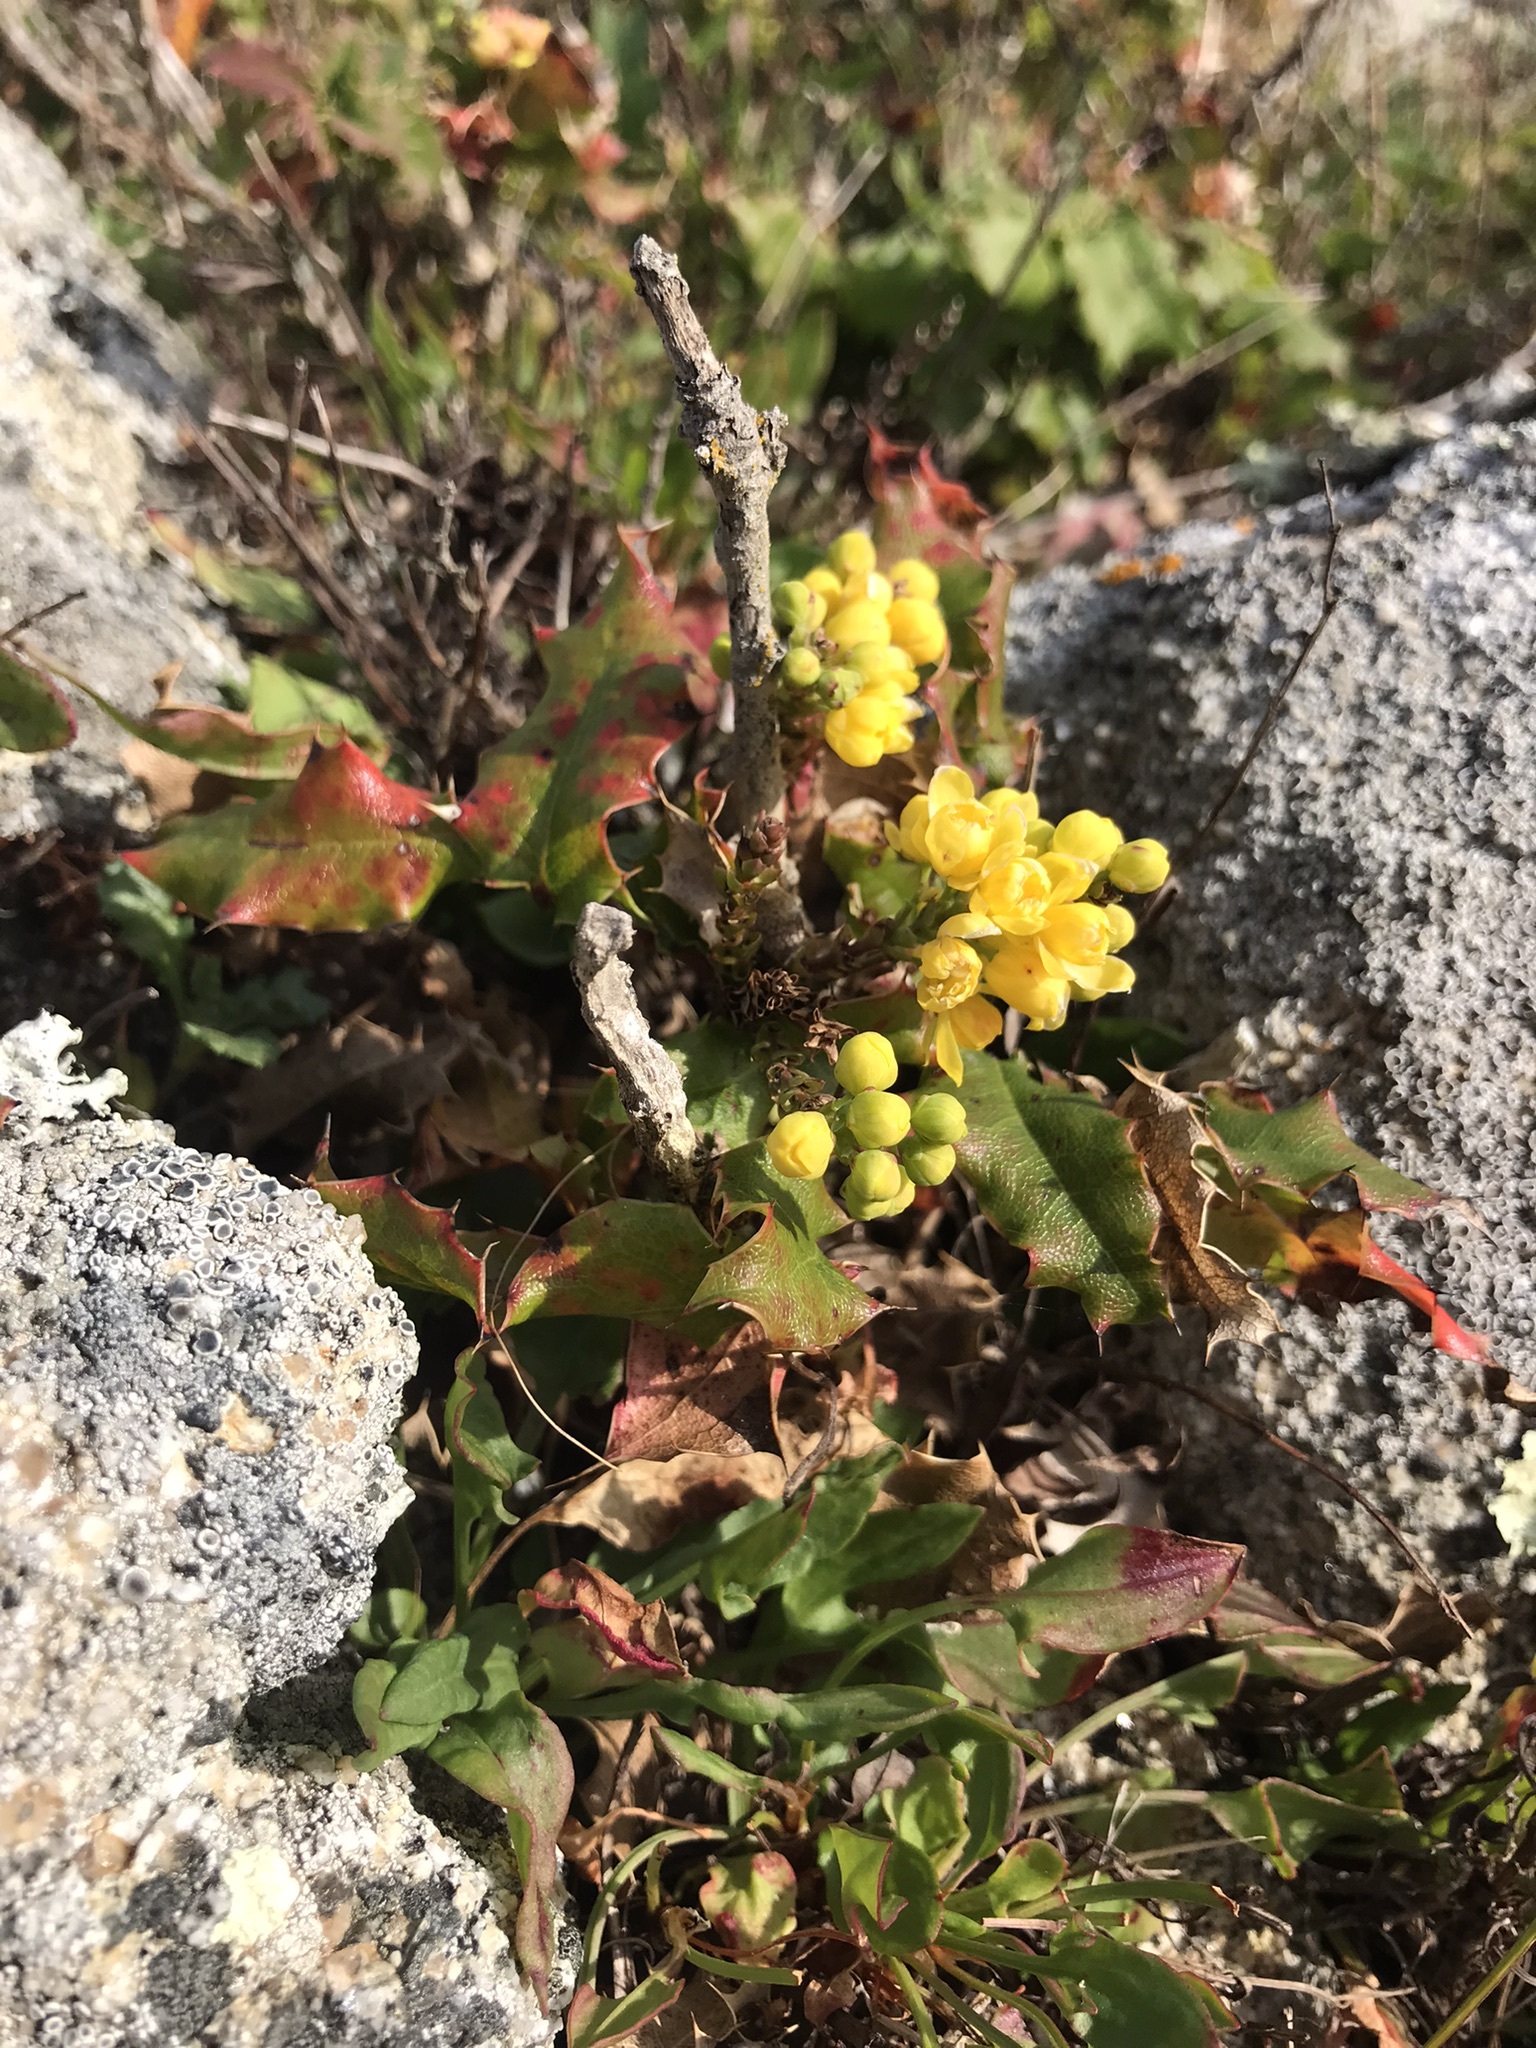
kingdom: Plantae
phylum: Tracheophyta
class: Magnoliopsida
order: Ranunculales
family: Berberidaceae
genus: Mahonia
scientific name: Mahonia
